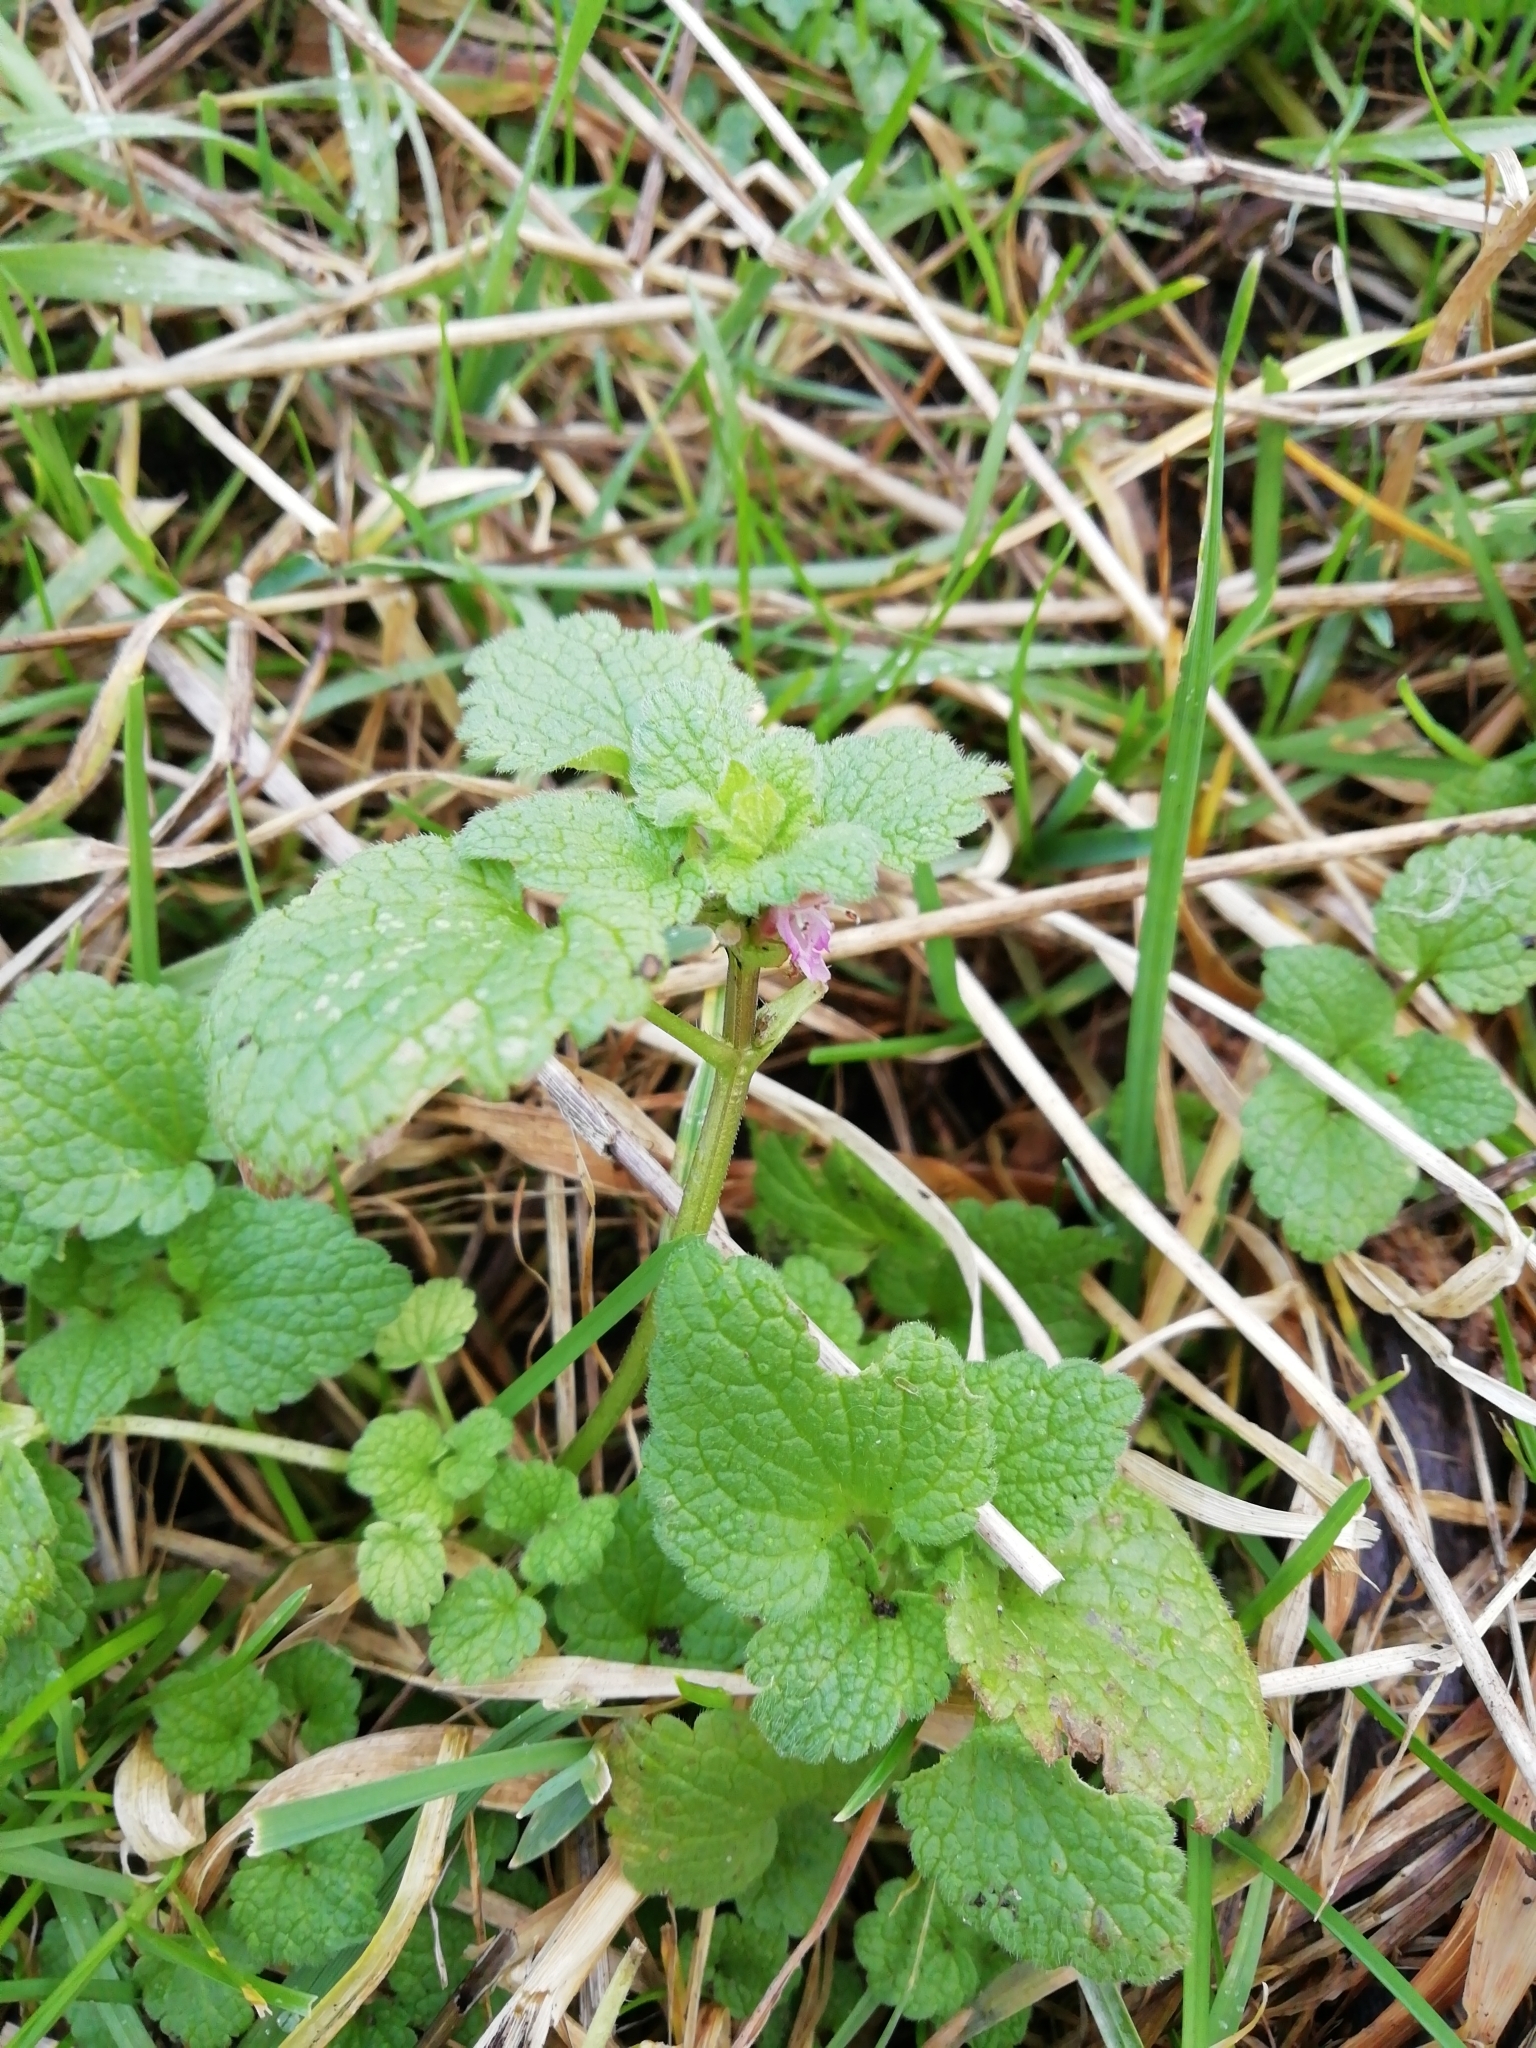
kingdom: Plantae
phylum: Tracheophyta
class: Magnoliopsida
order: Lamiales
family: Lamiaceae
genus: Lamium
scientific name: Lamium purpureum
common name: Red dead-nettle
